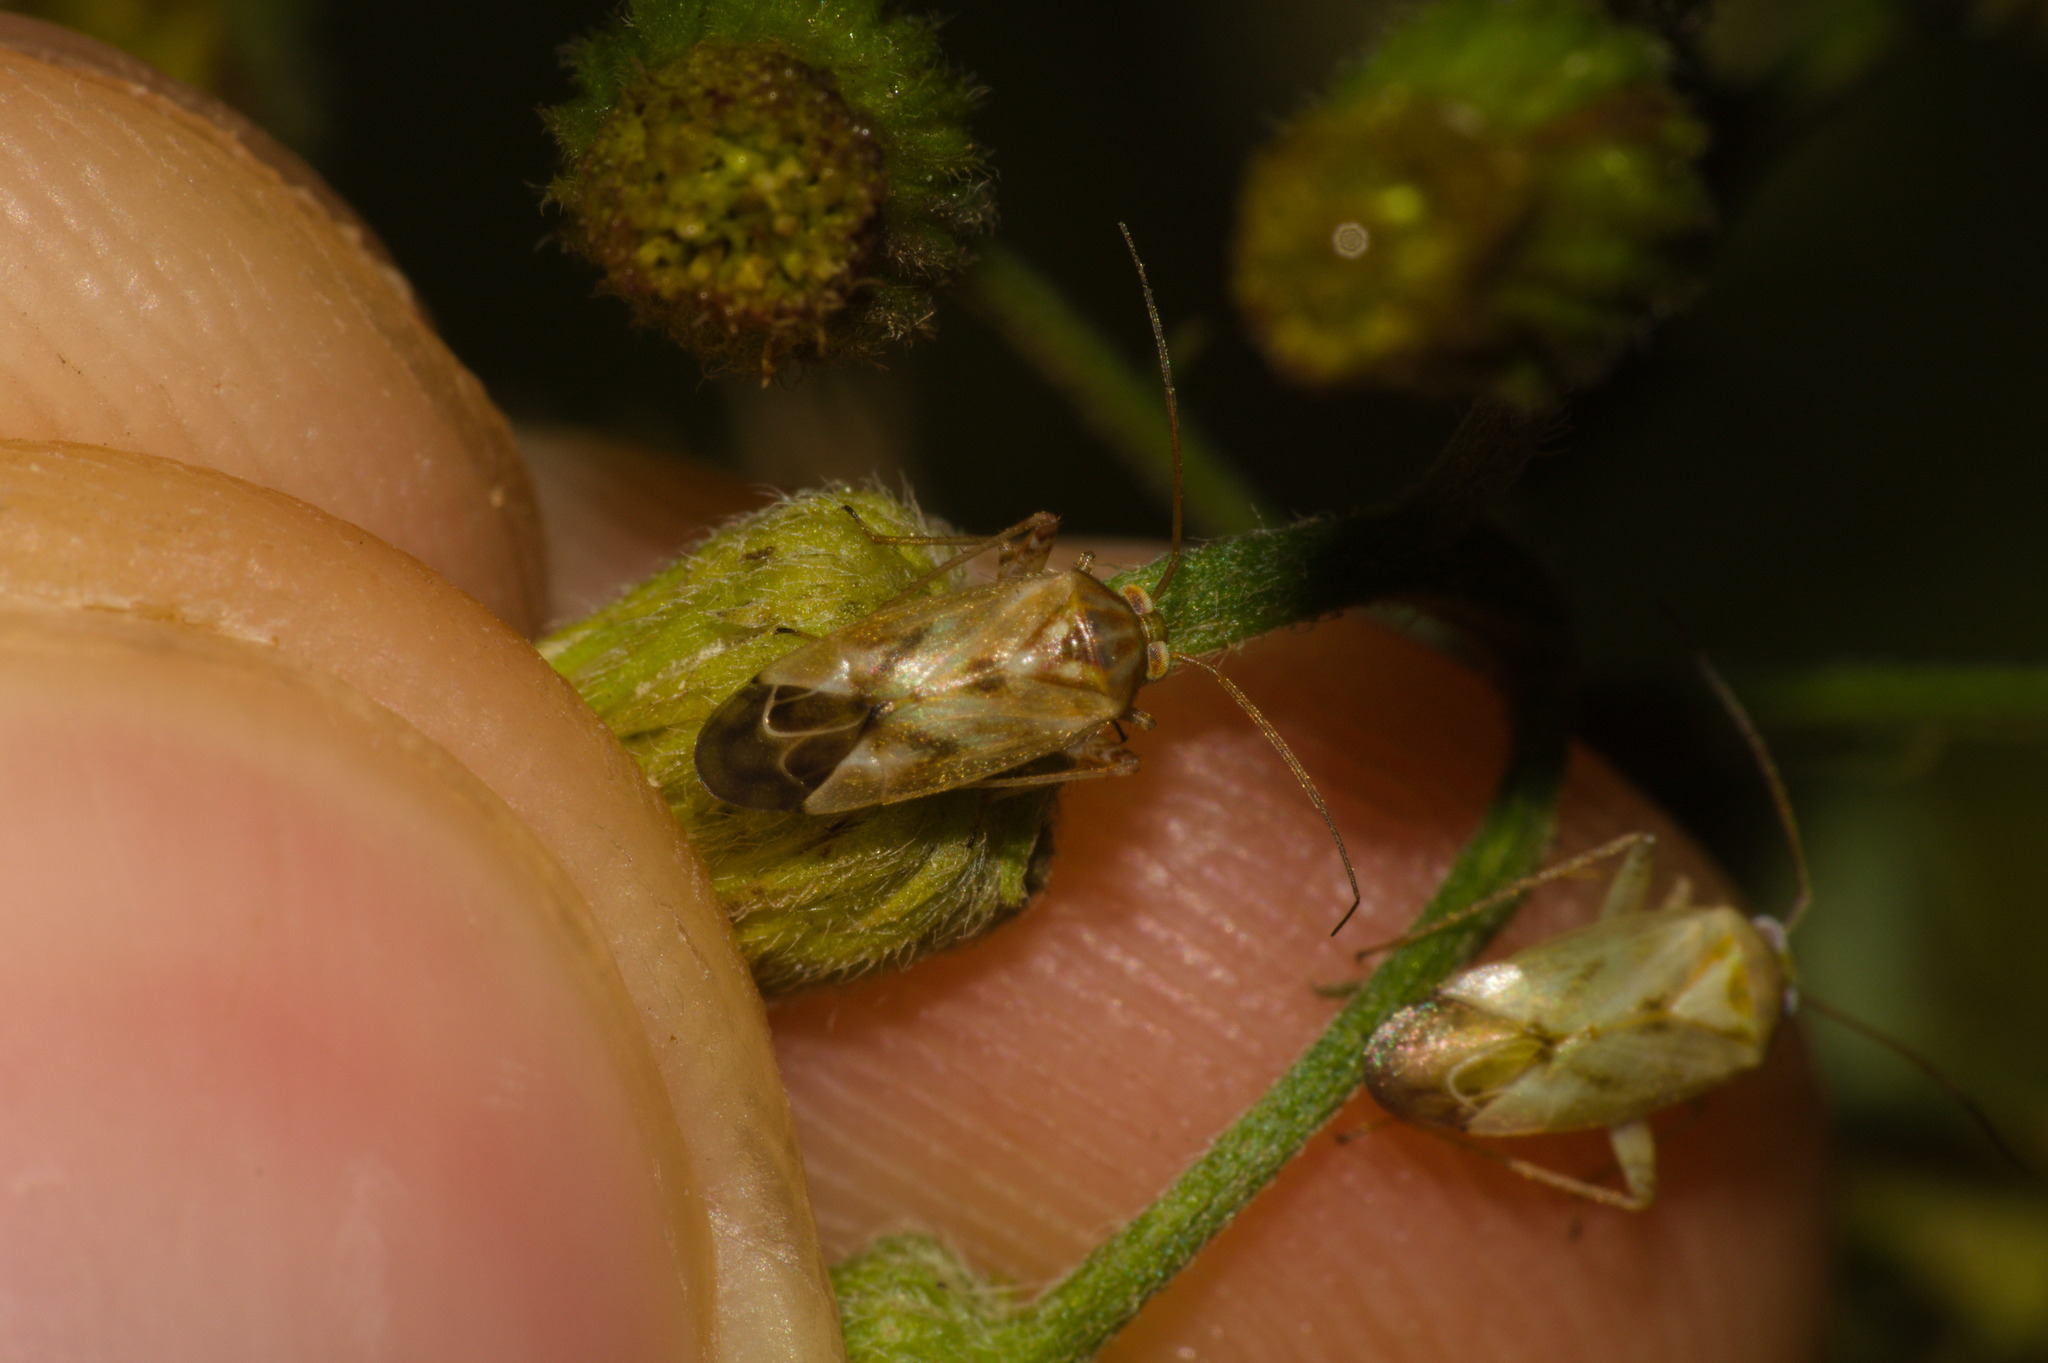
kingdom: Animalia
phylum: Arthropoda
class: Insecta
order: Hemiptera
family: Miridae
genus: Taylorilygus
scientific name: Taylorilygus apicalis
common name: Plant bug
